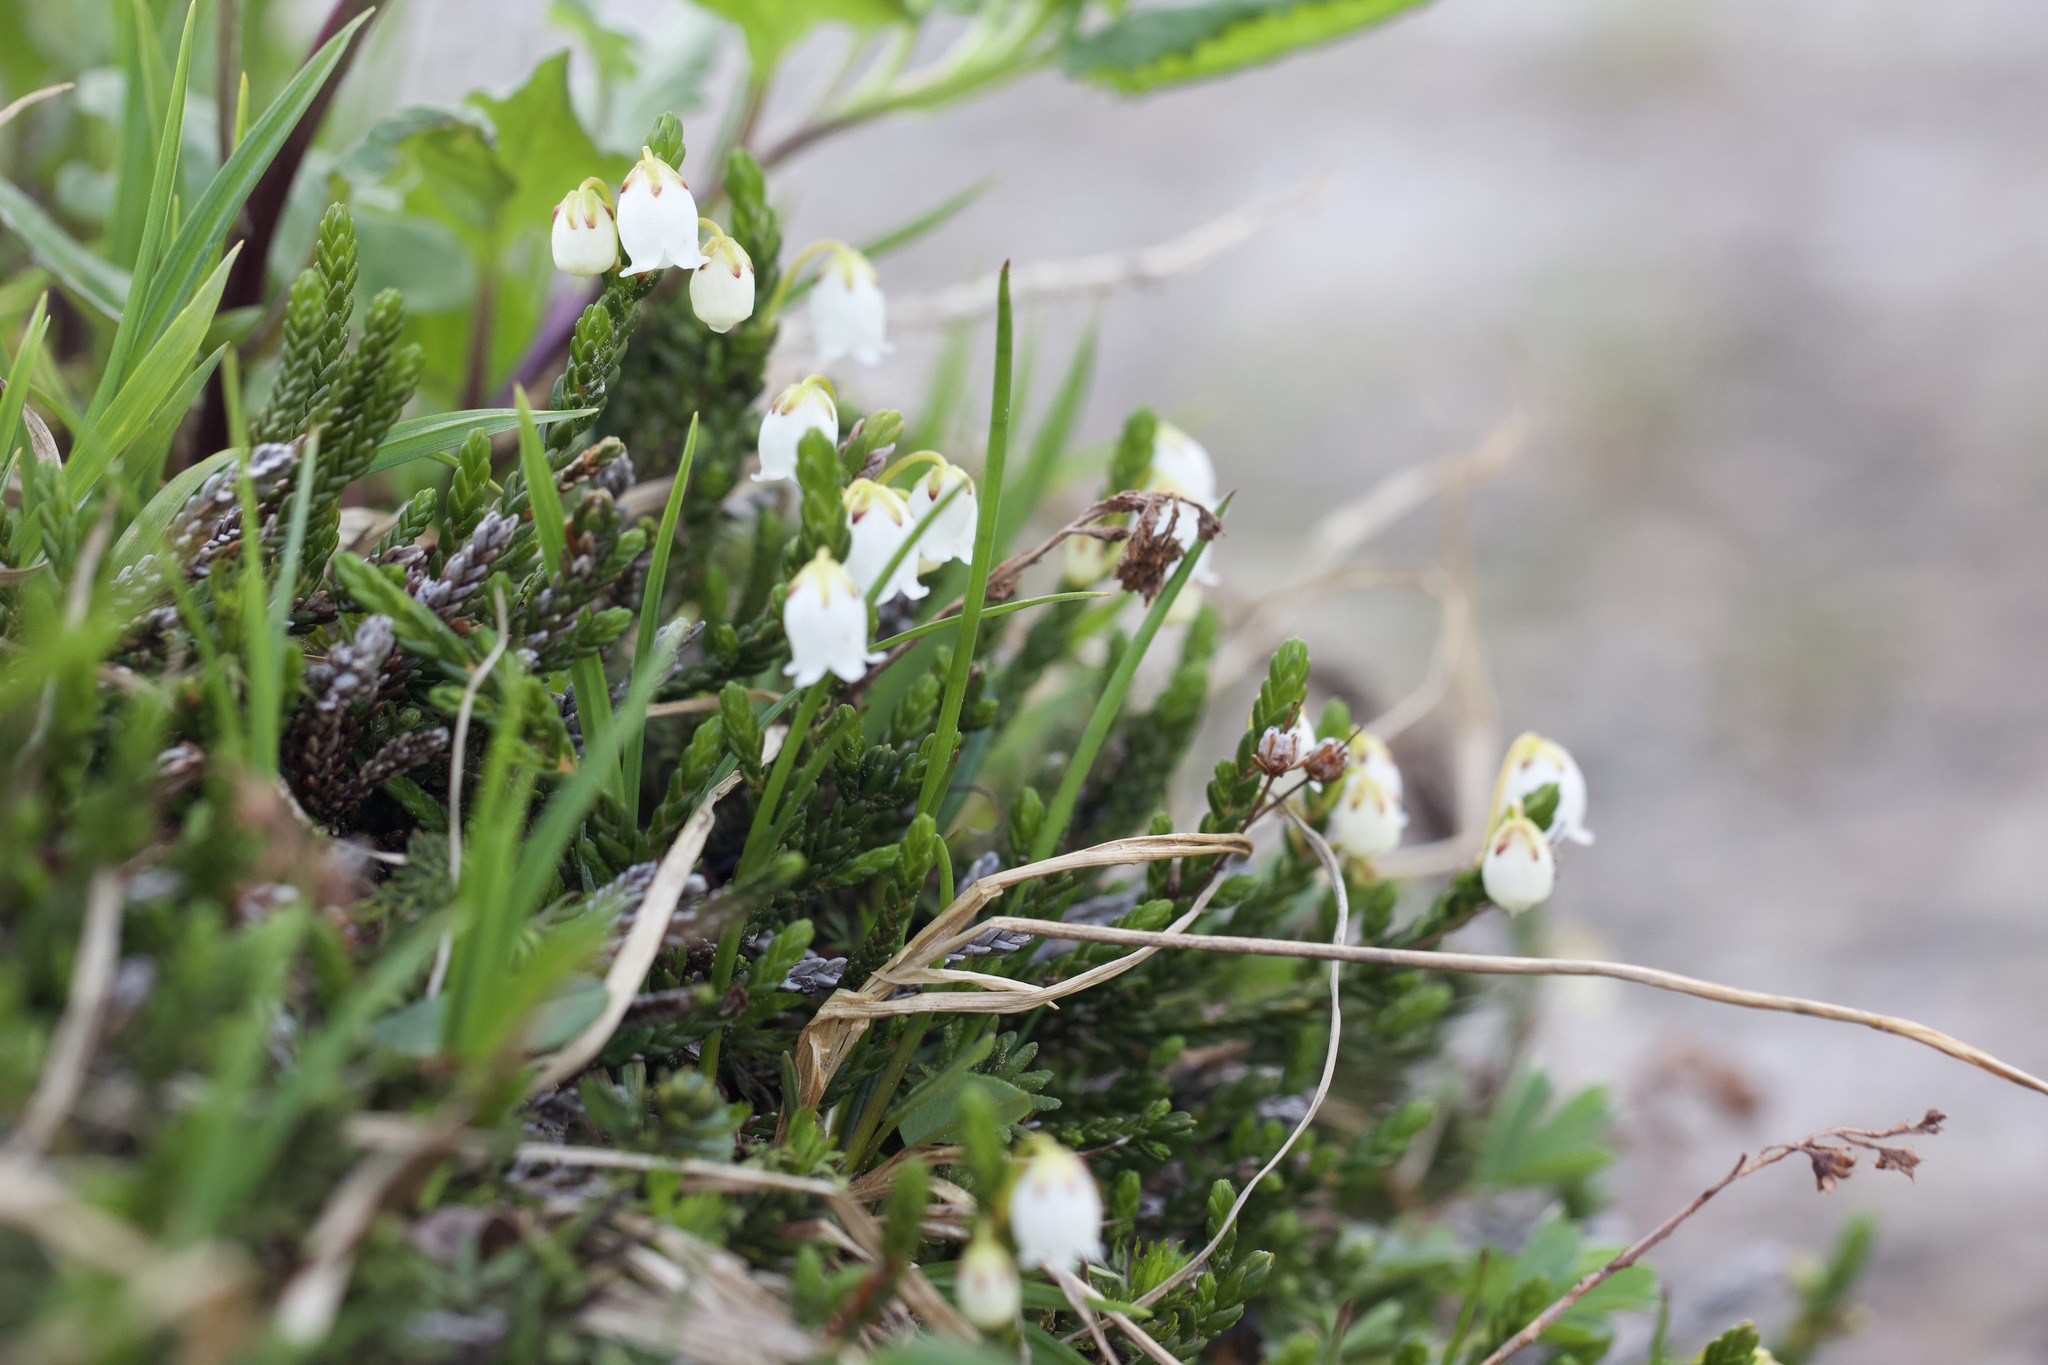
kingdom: Plantae
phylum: Tracheophyta
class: Magnoliopsida
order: Ericales
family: Ericaceae
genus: Cassiope
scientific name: Cassiope mertensiana
